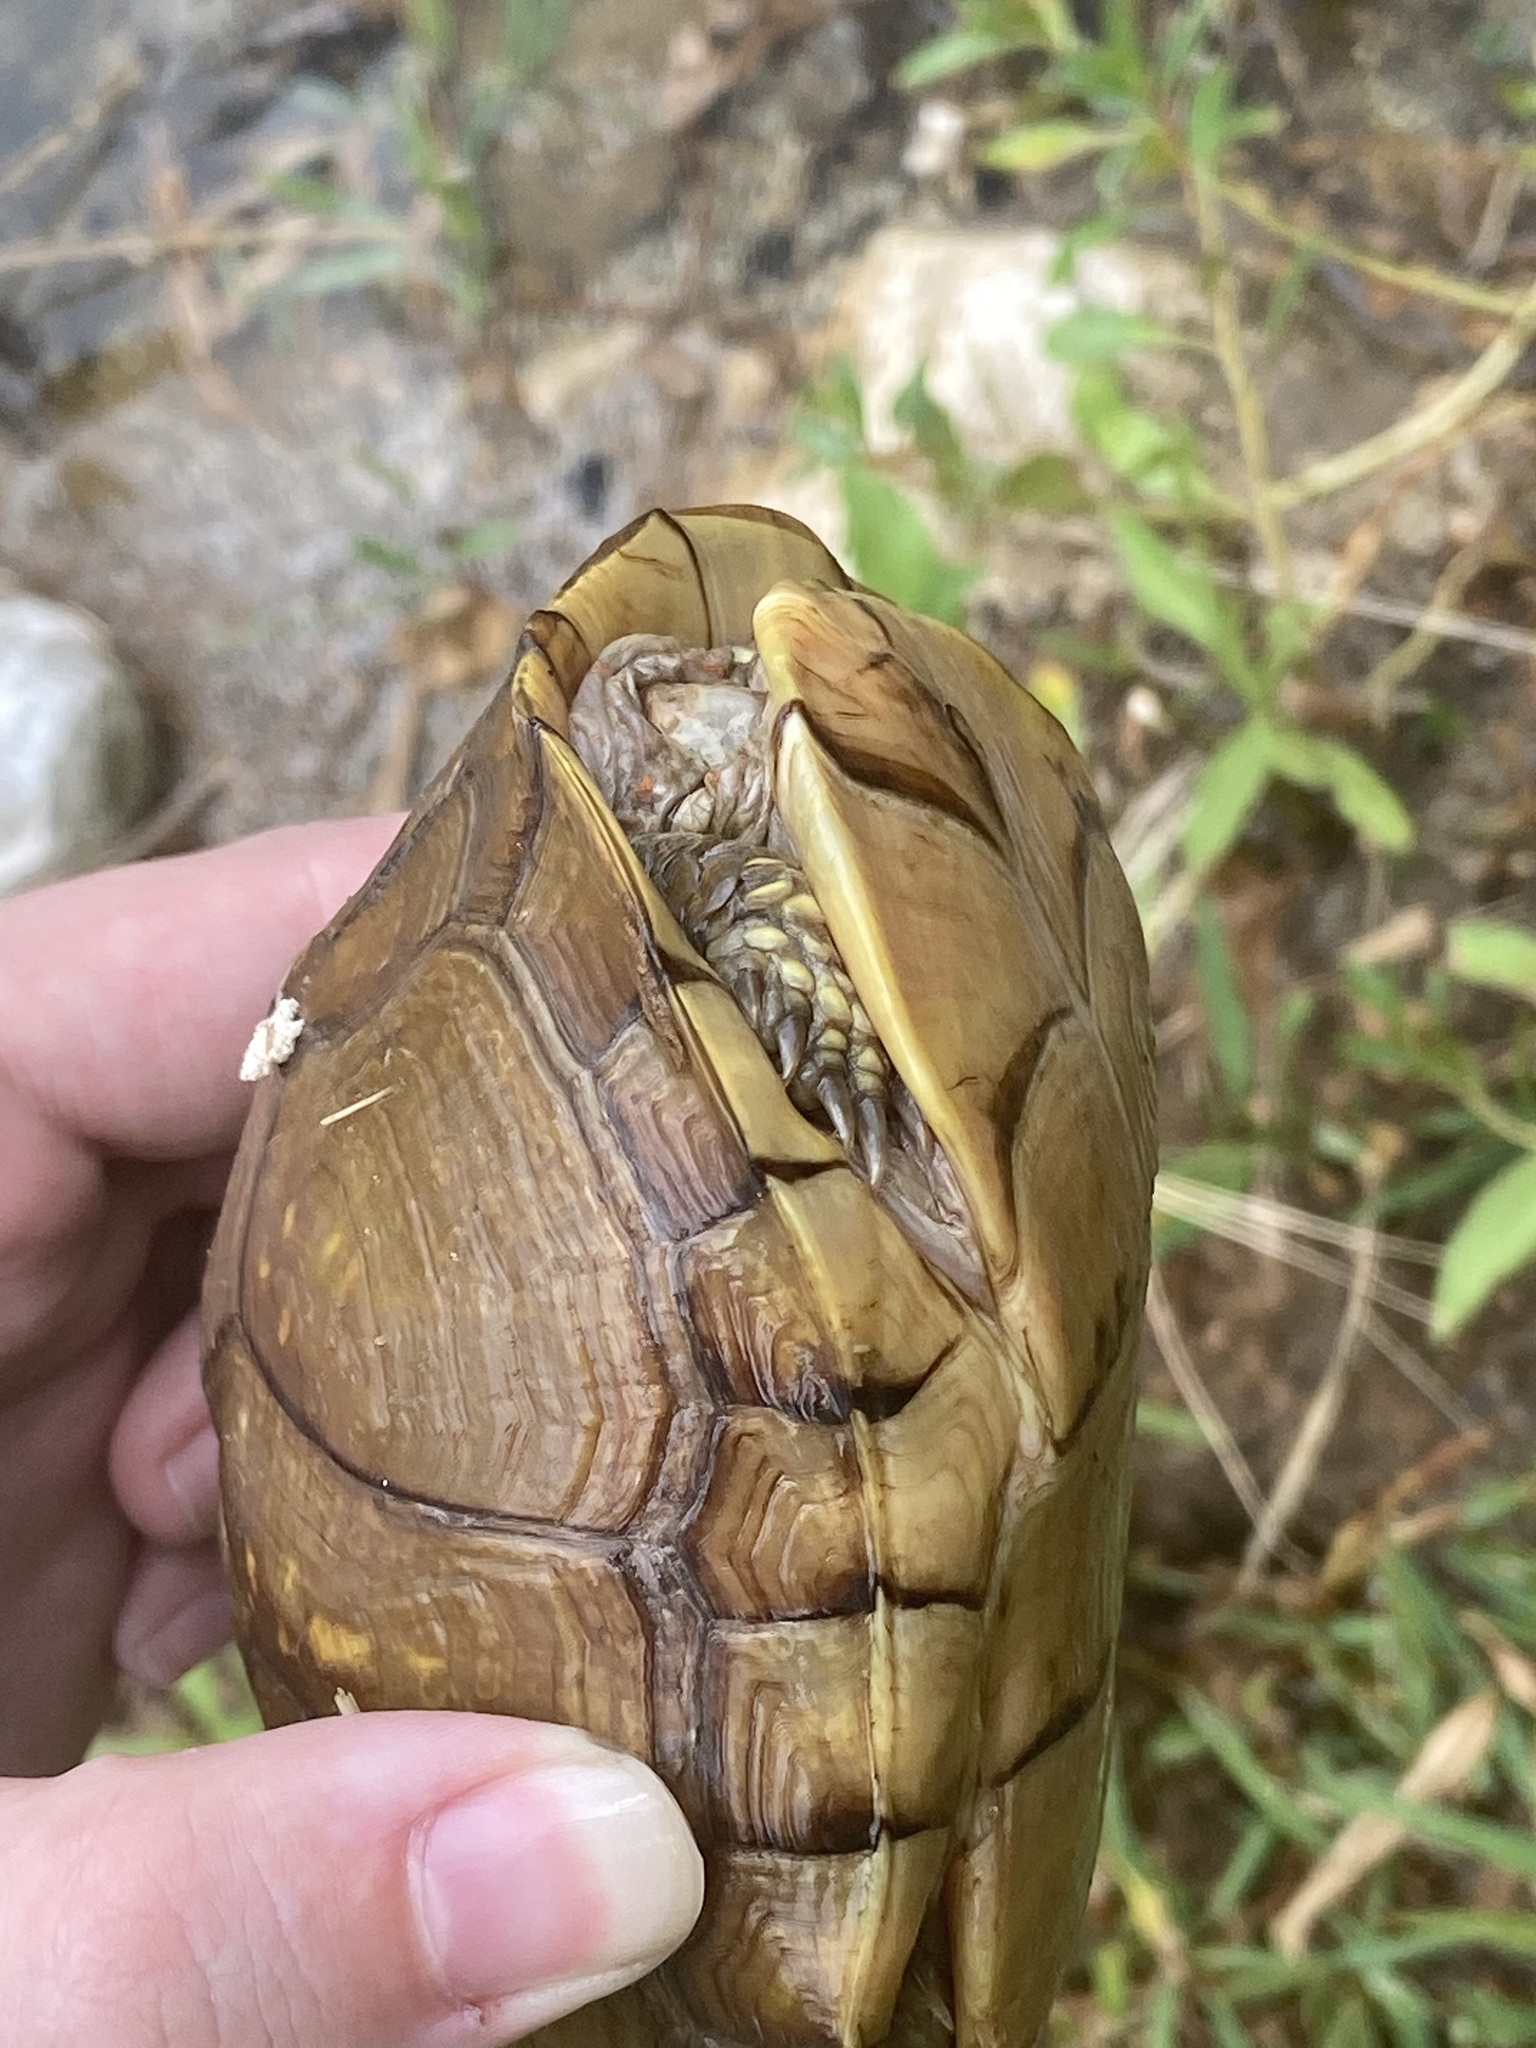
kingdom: Animalia
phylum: Chordata
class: Testudines
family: Emydidae
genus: Terrapene
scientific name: Terrapene carolina
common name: Common box turtle
